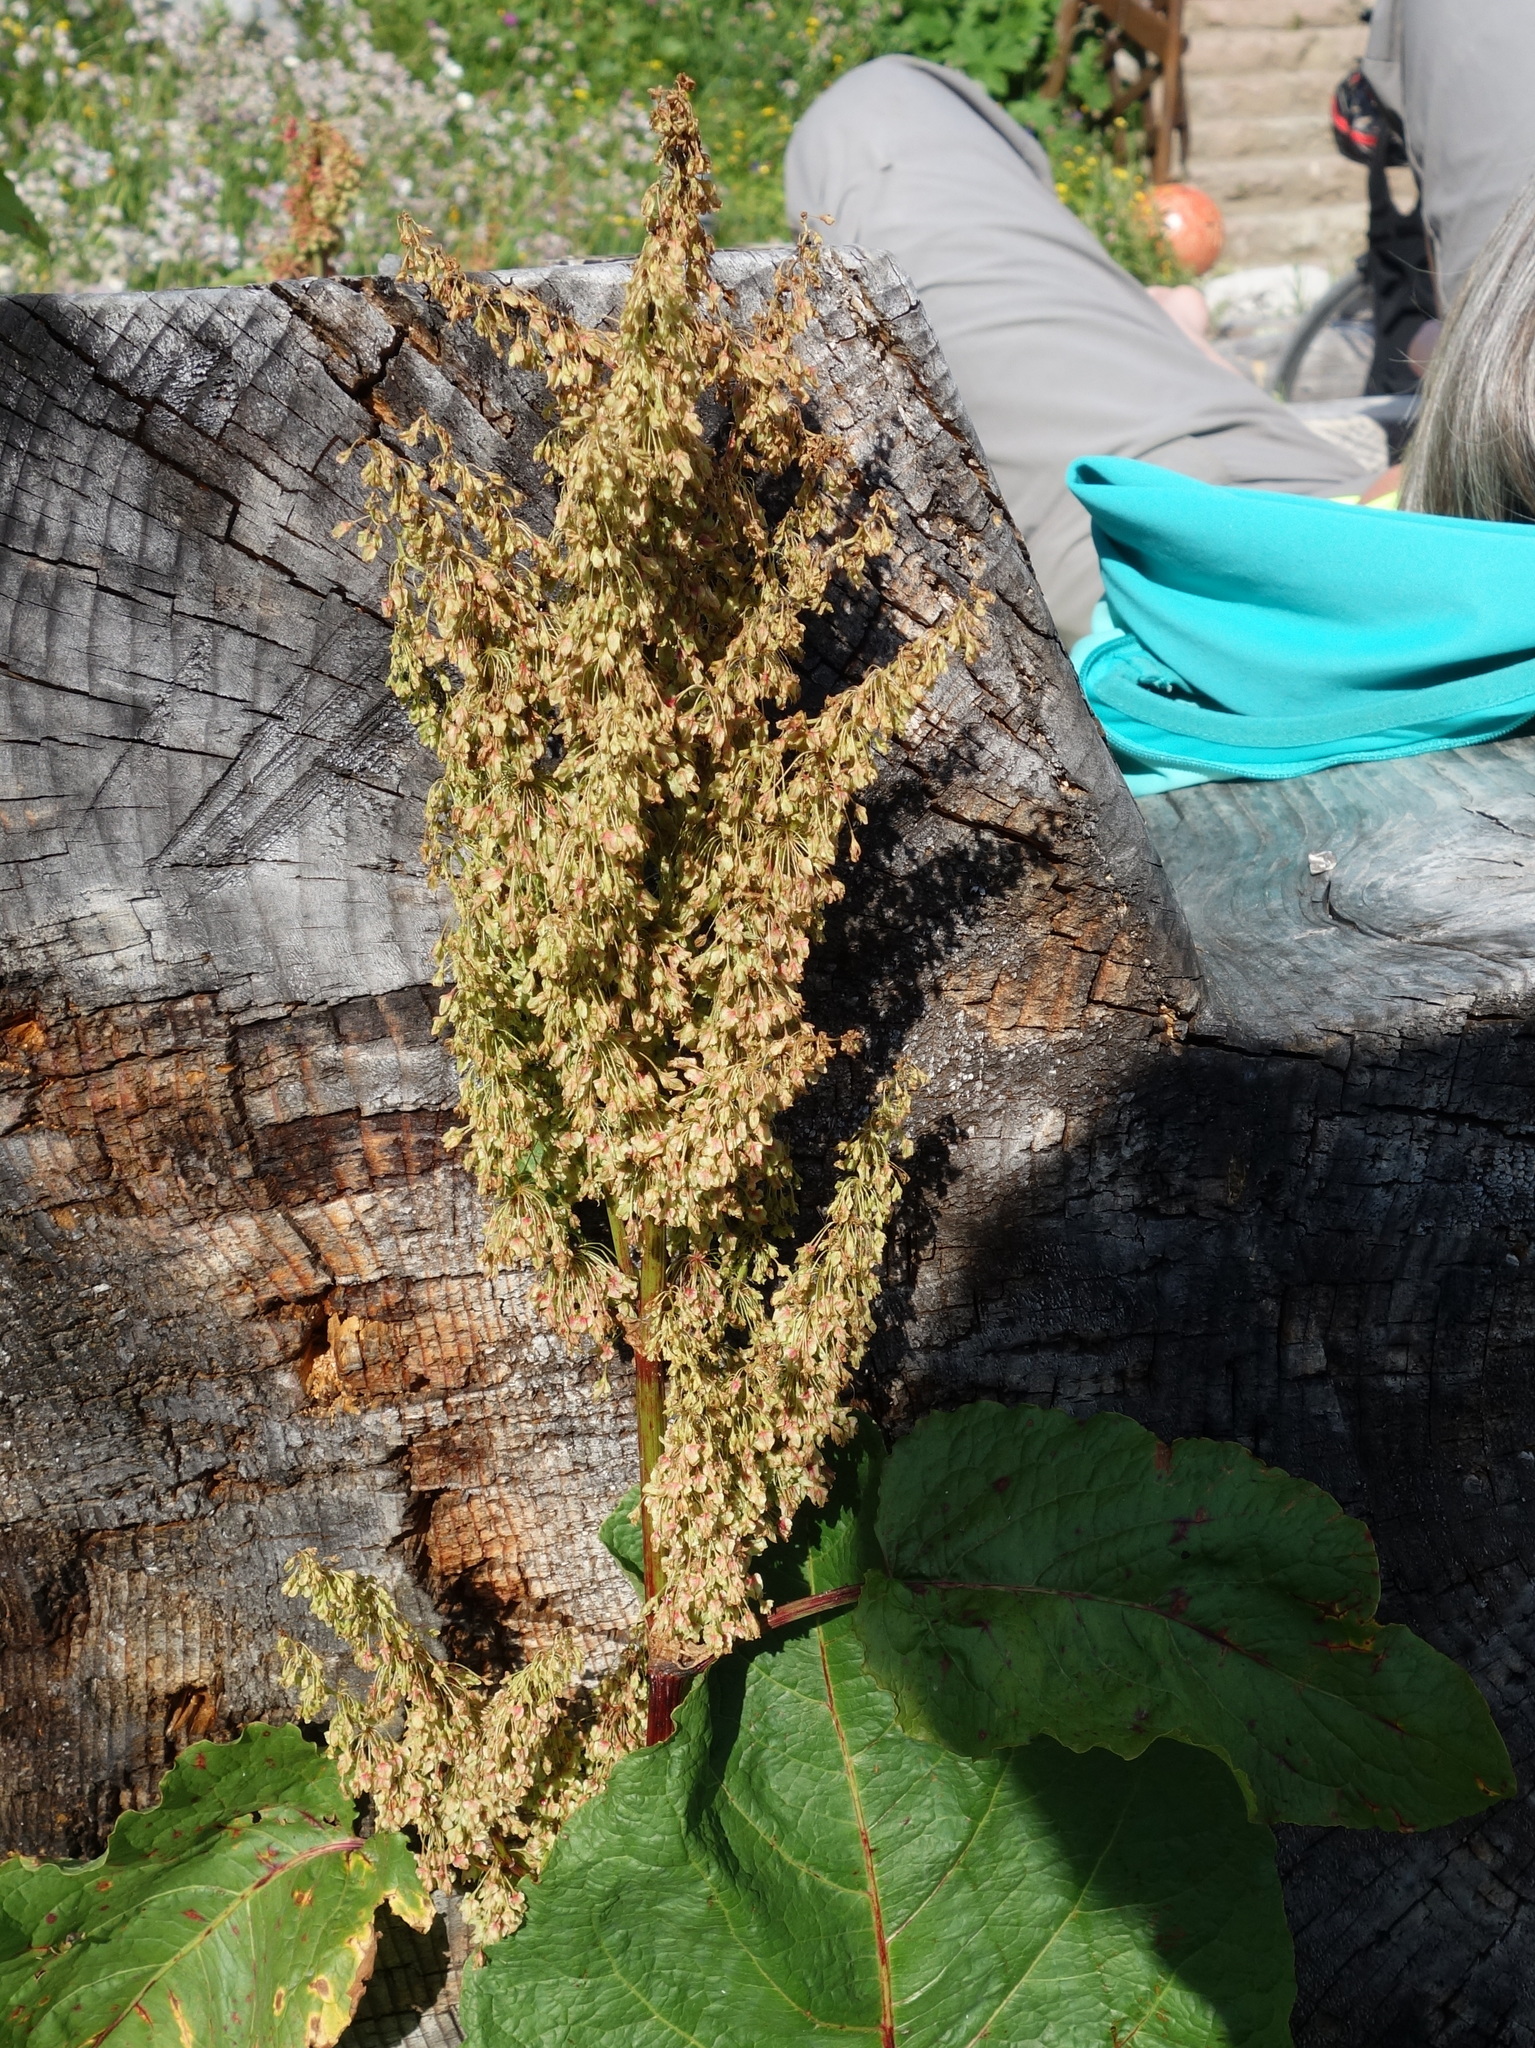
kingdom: Plantae
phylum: Tracheophyta
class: Magnoliopsida
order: Caryophyllales
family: Polygonaceae
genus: Rumex
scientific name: Rumex alpinus
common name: Alpine dock
